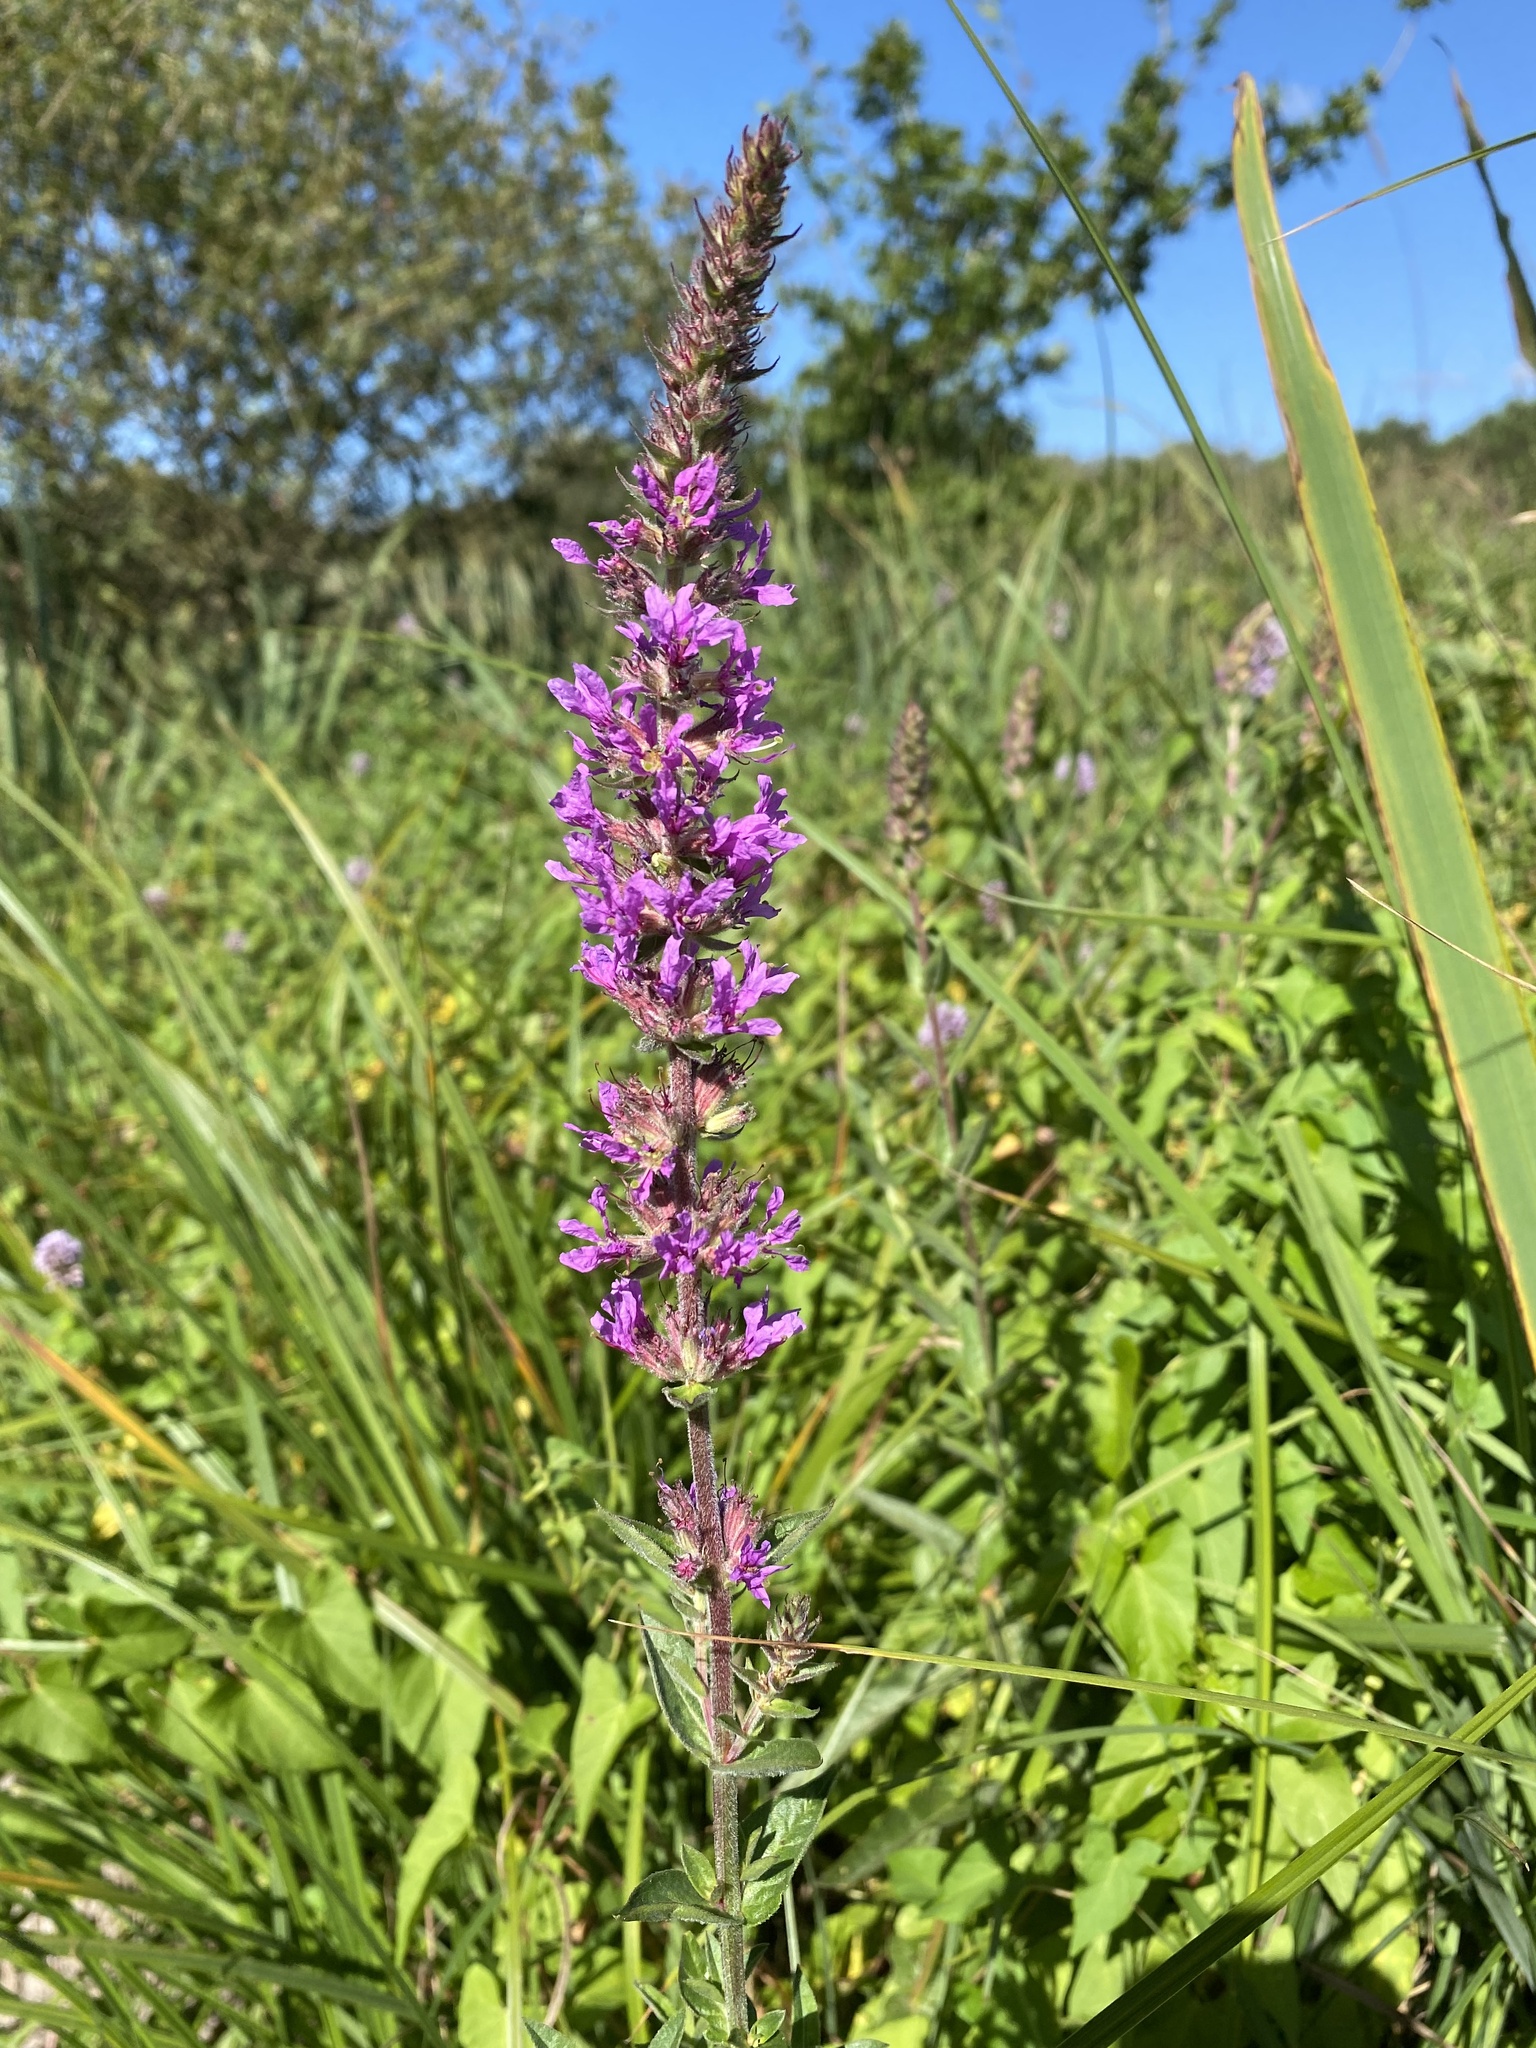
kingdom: Plantae
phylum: Tracheophyta
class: Magnoliopsida
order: Myrtales
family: Lythraceae
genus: Lythrum
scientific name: Lythrum salicaria
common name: Purple loosestrife
